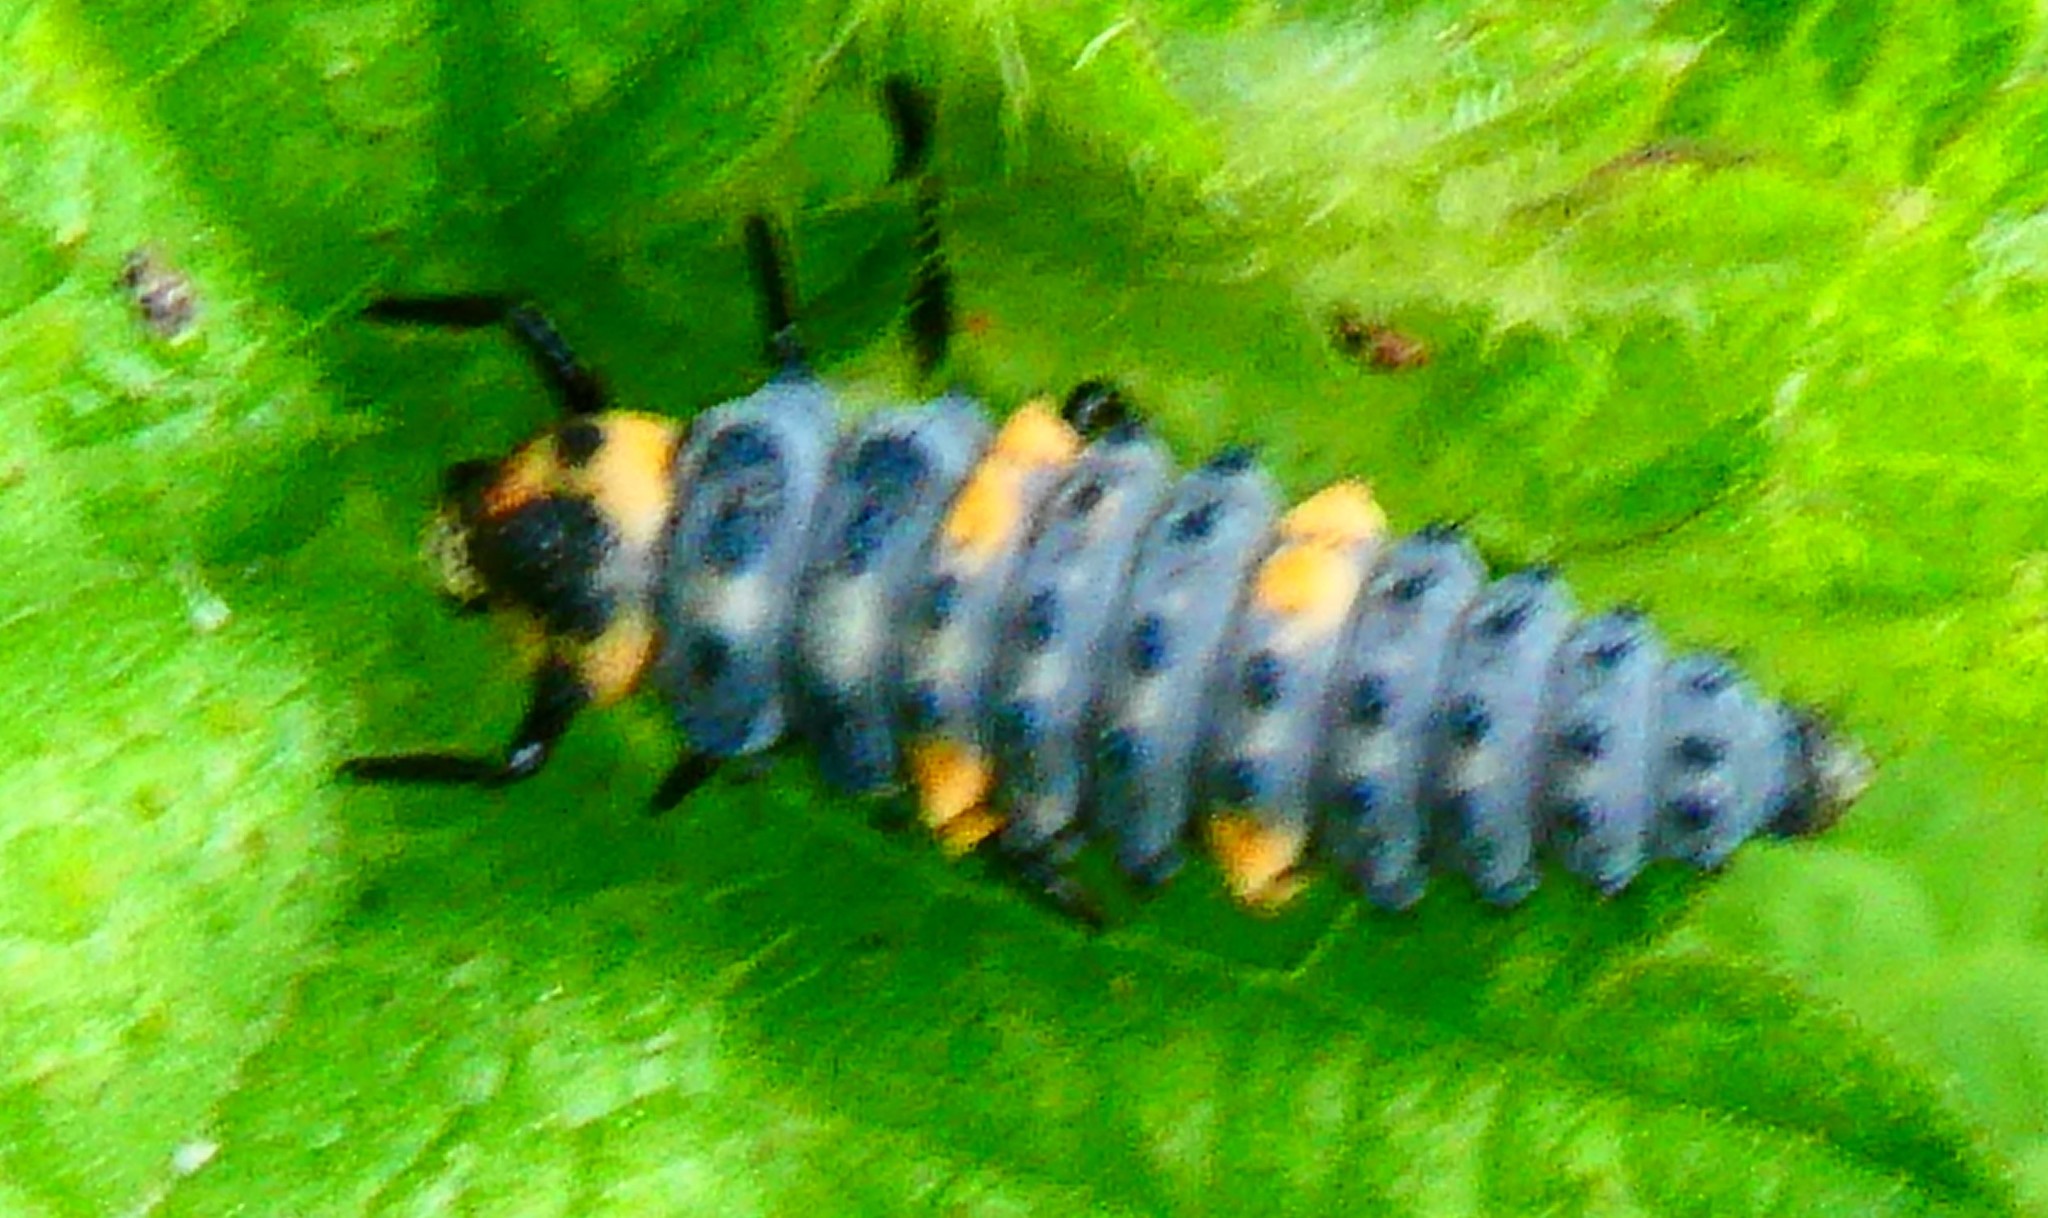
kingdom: Animalia
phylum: Arthropoda
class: Insecta
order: Coleoptera
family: Coccinellidae
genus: Coccinella
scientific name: Coccinella septempunctata
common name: Sevenspotted lady beetle
